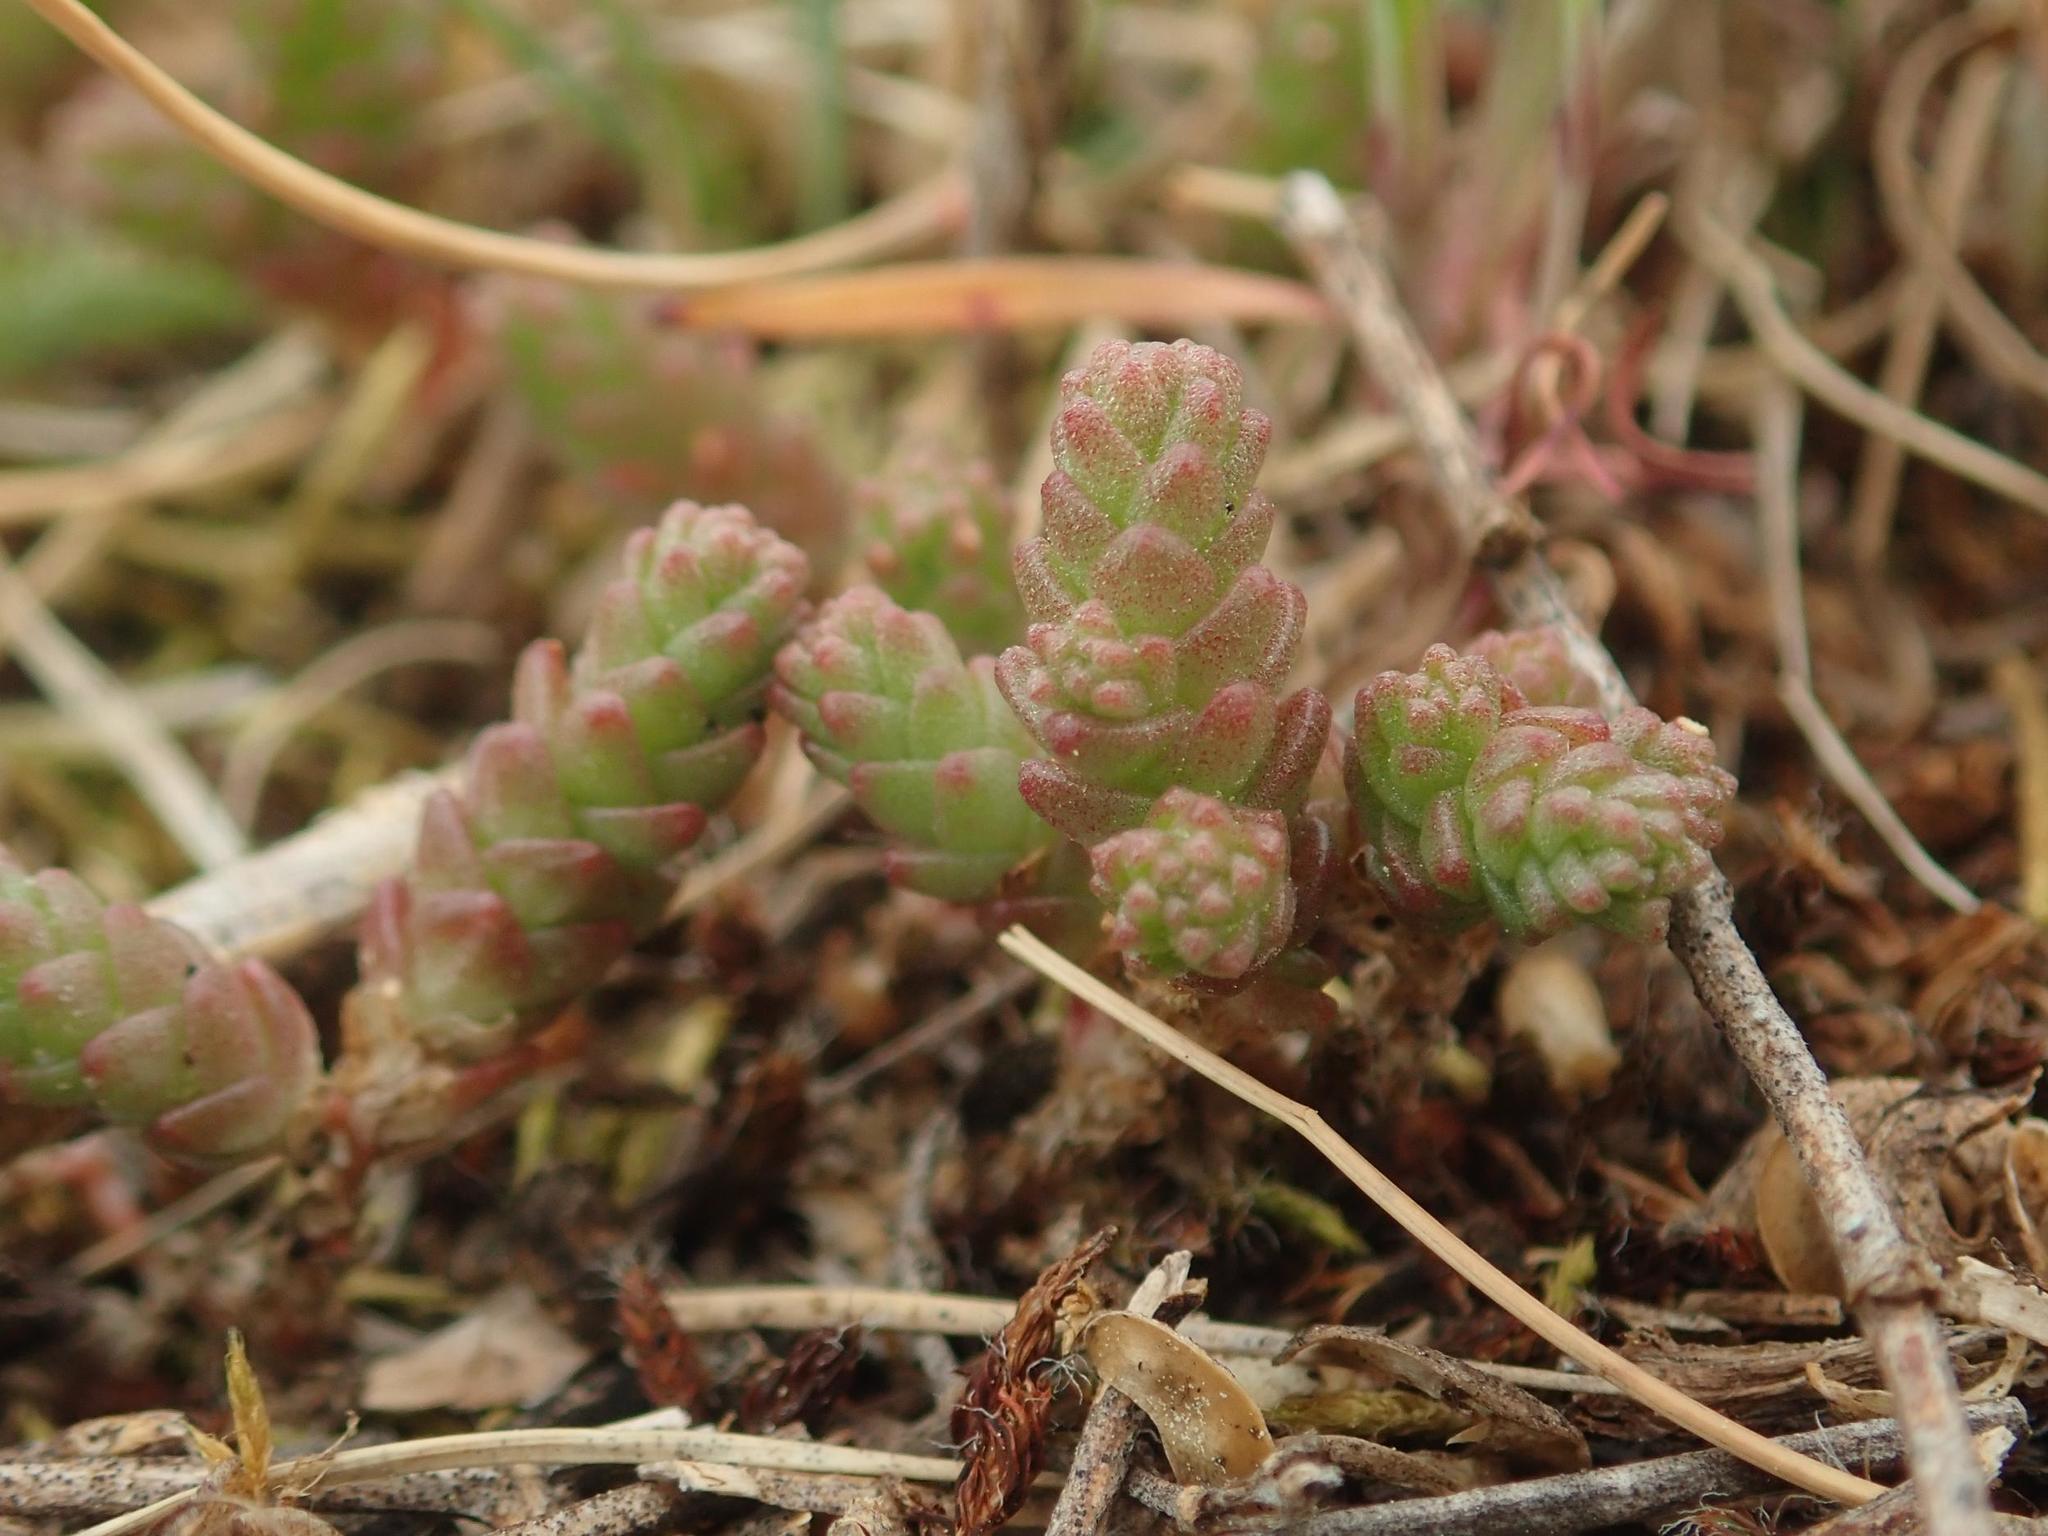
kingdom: Plantae
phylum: Tracheophyta
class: Magnoliopsida
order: Saxifragales
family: Crassulaceae
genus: Sedum
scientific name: Sedum acre
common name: Biting stonecrop
